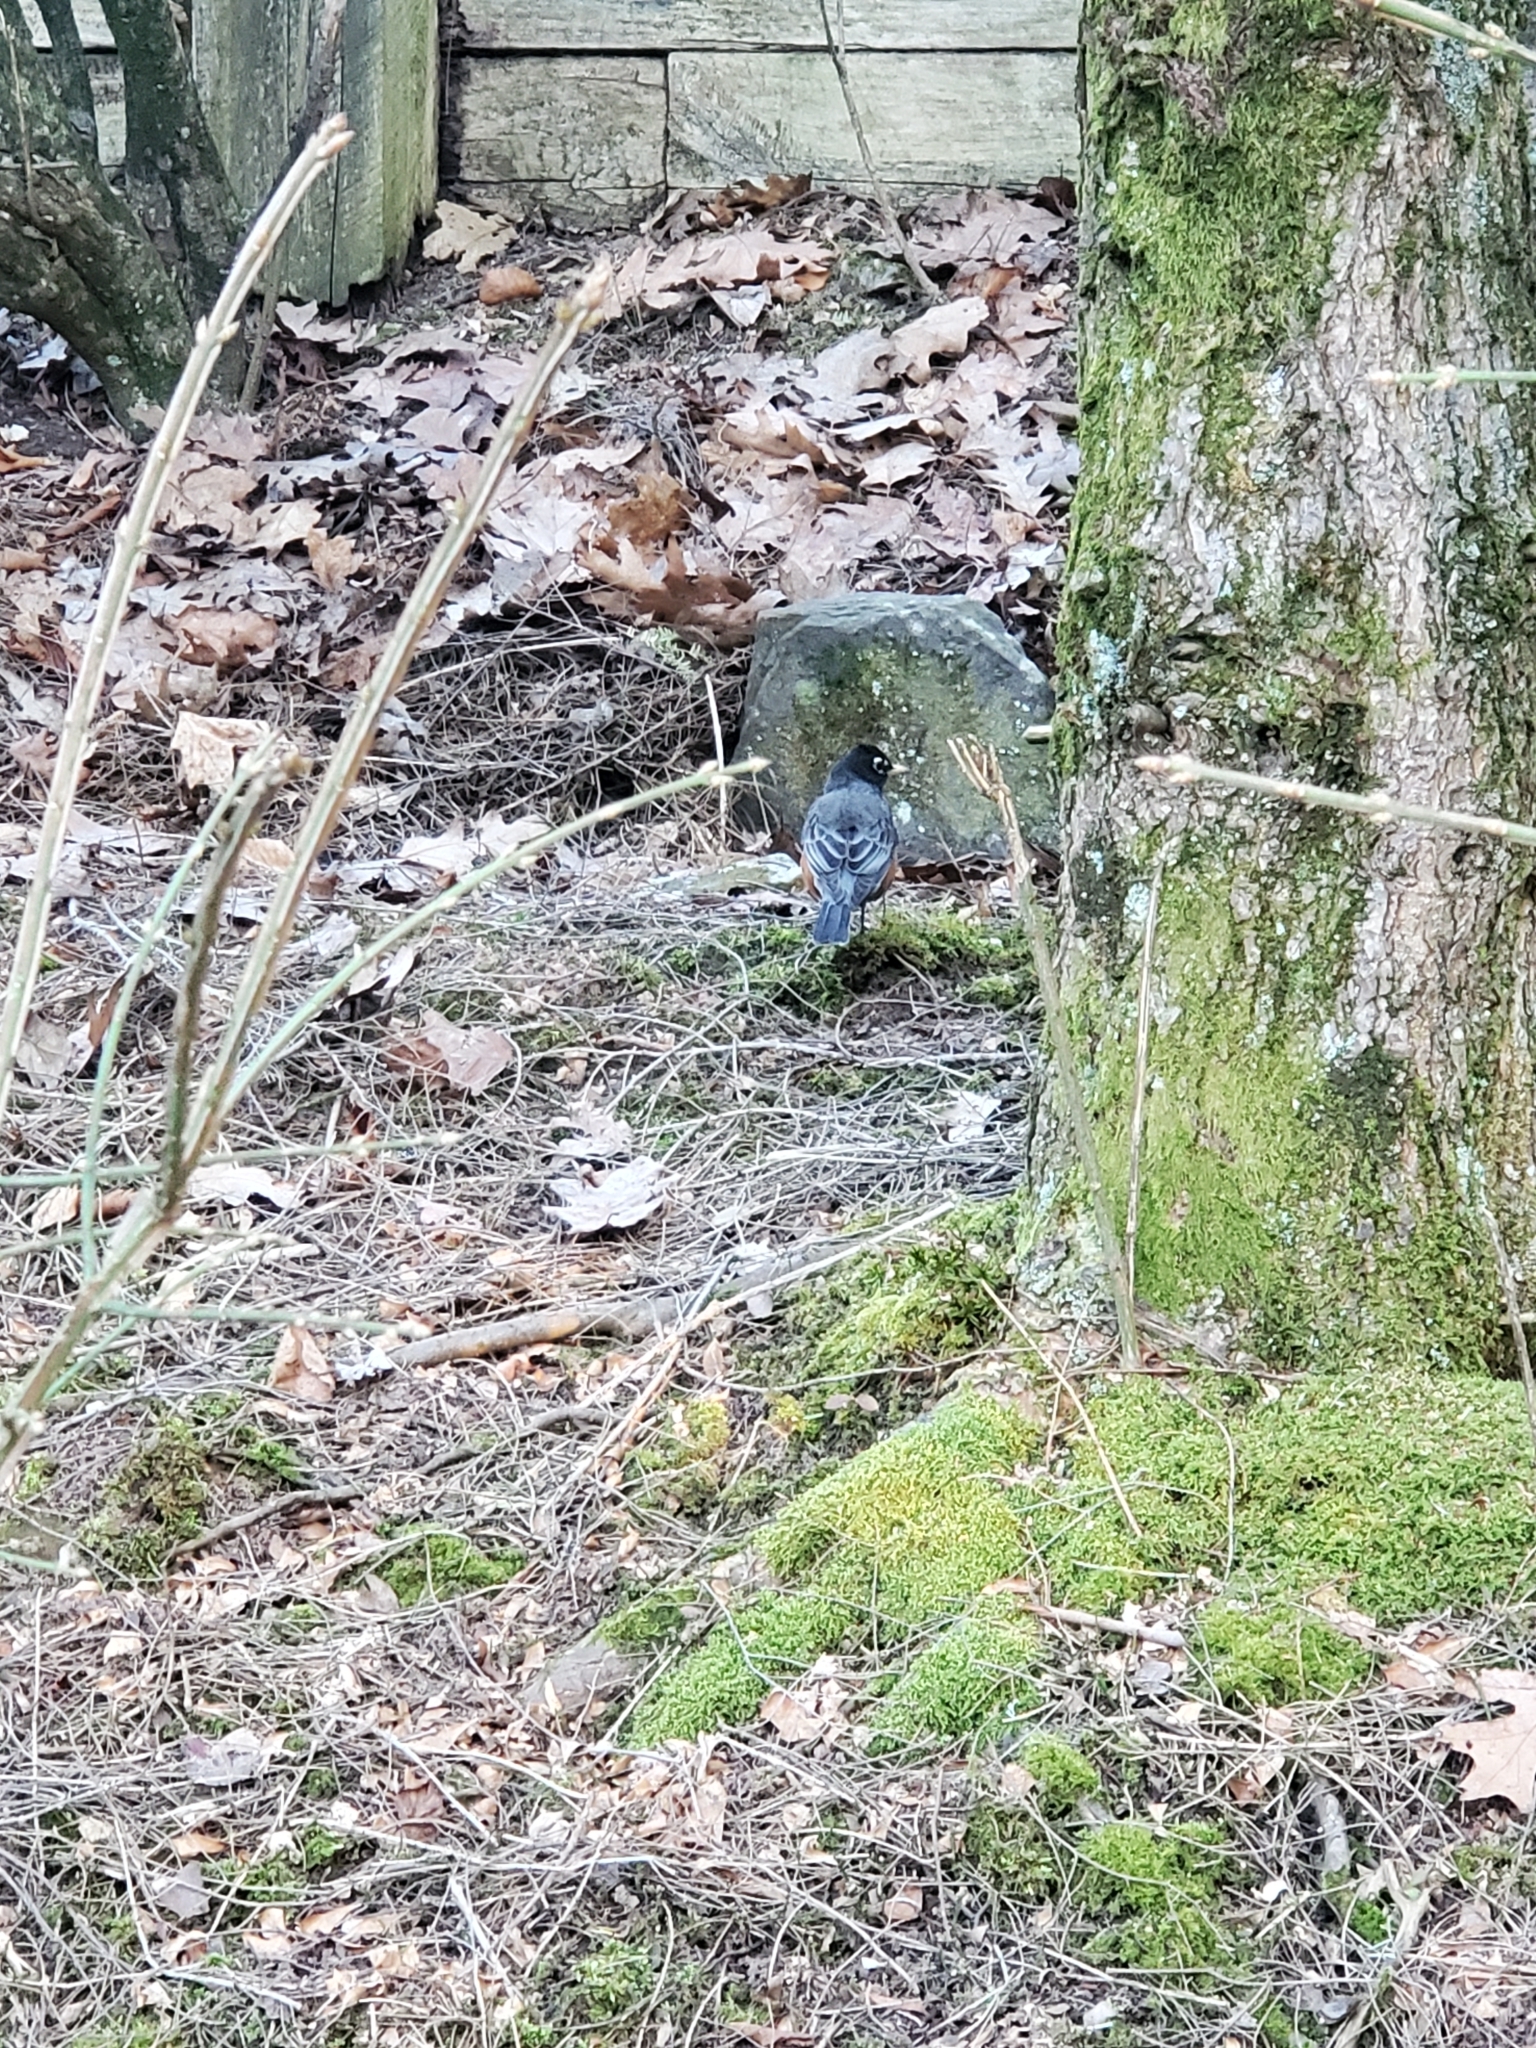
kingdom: Animalia
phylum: Chordata
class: Aves
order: Passeriformes
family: Turdidae
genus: Turdus
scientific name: Turdus migratorius
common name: American robin
